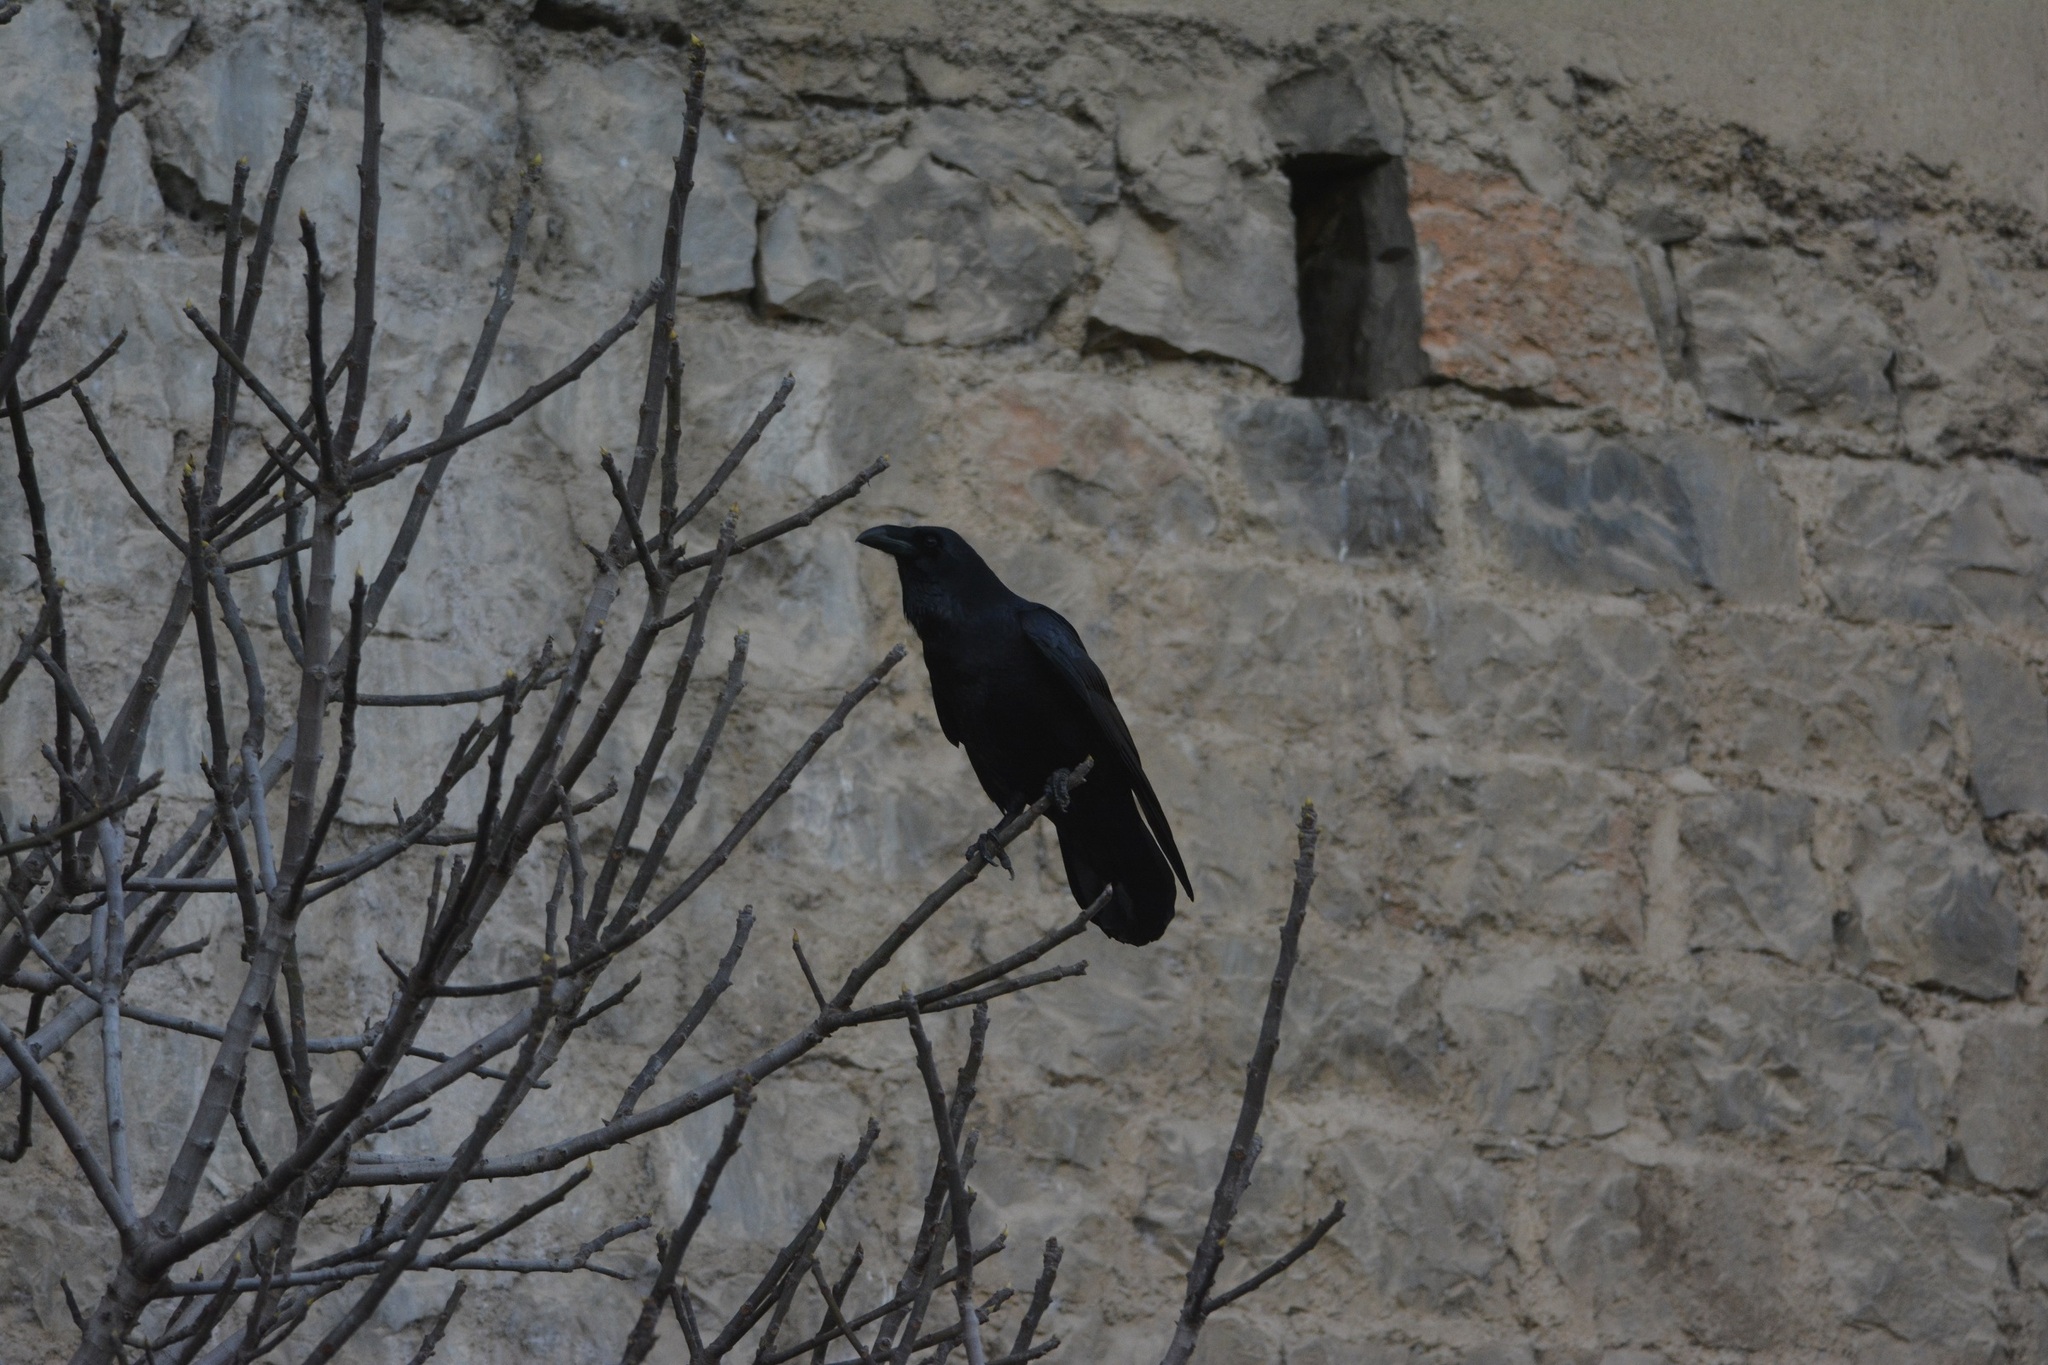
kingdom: Animalia
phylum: Chordata
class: Aves
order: Passeriformes
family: Corvidae
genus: Corvus
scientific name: Corvus corax
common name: Common raven
